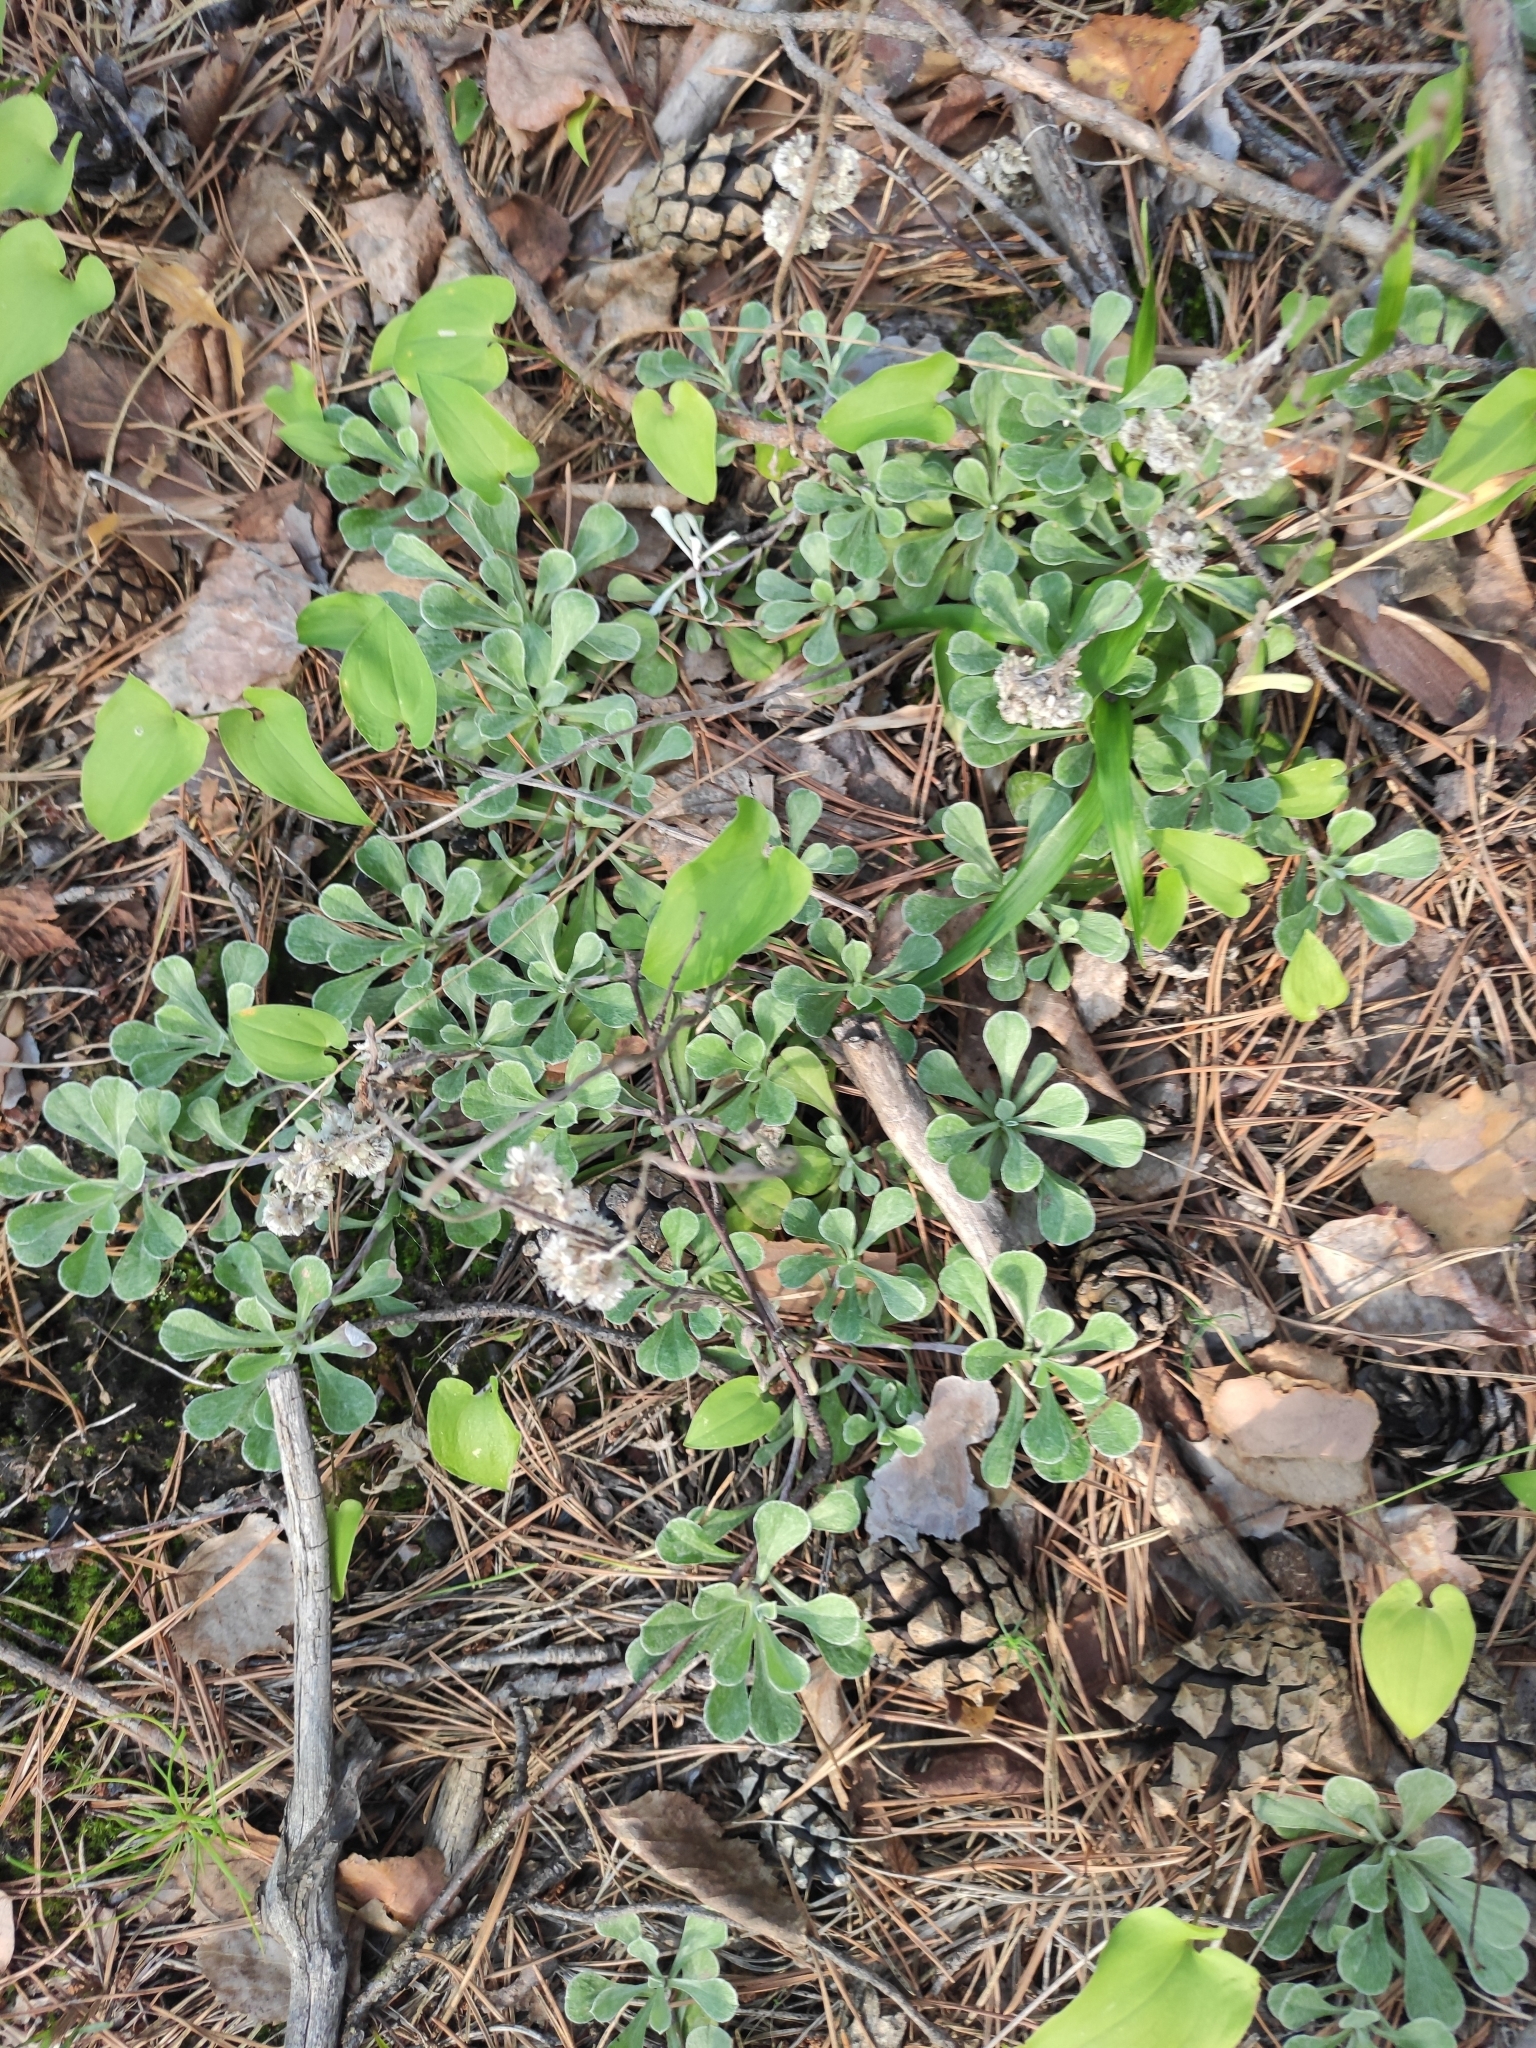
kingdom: Plantae
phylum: Tracheophyta
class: Magnoliopsida
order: Asterales
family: Asteraceae
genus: Antennaria
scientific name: Antennaria dioica
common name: Mountain everlasting
